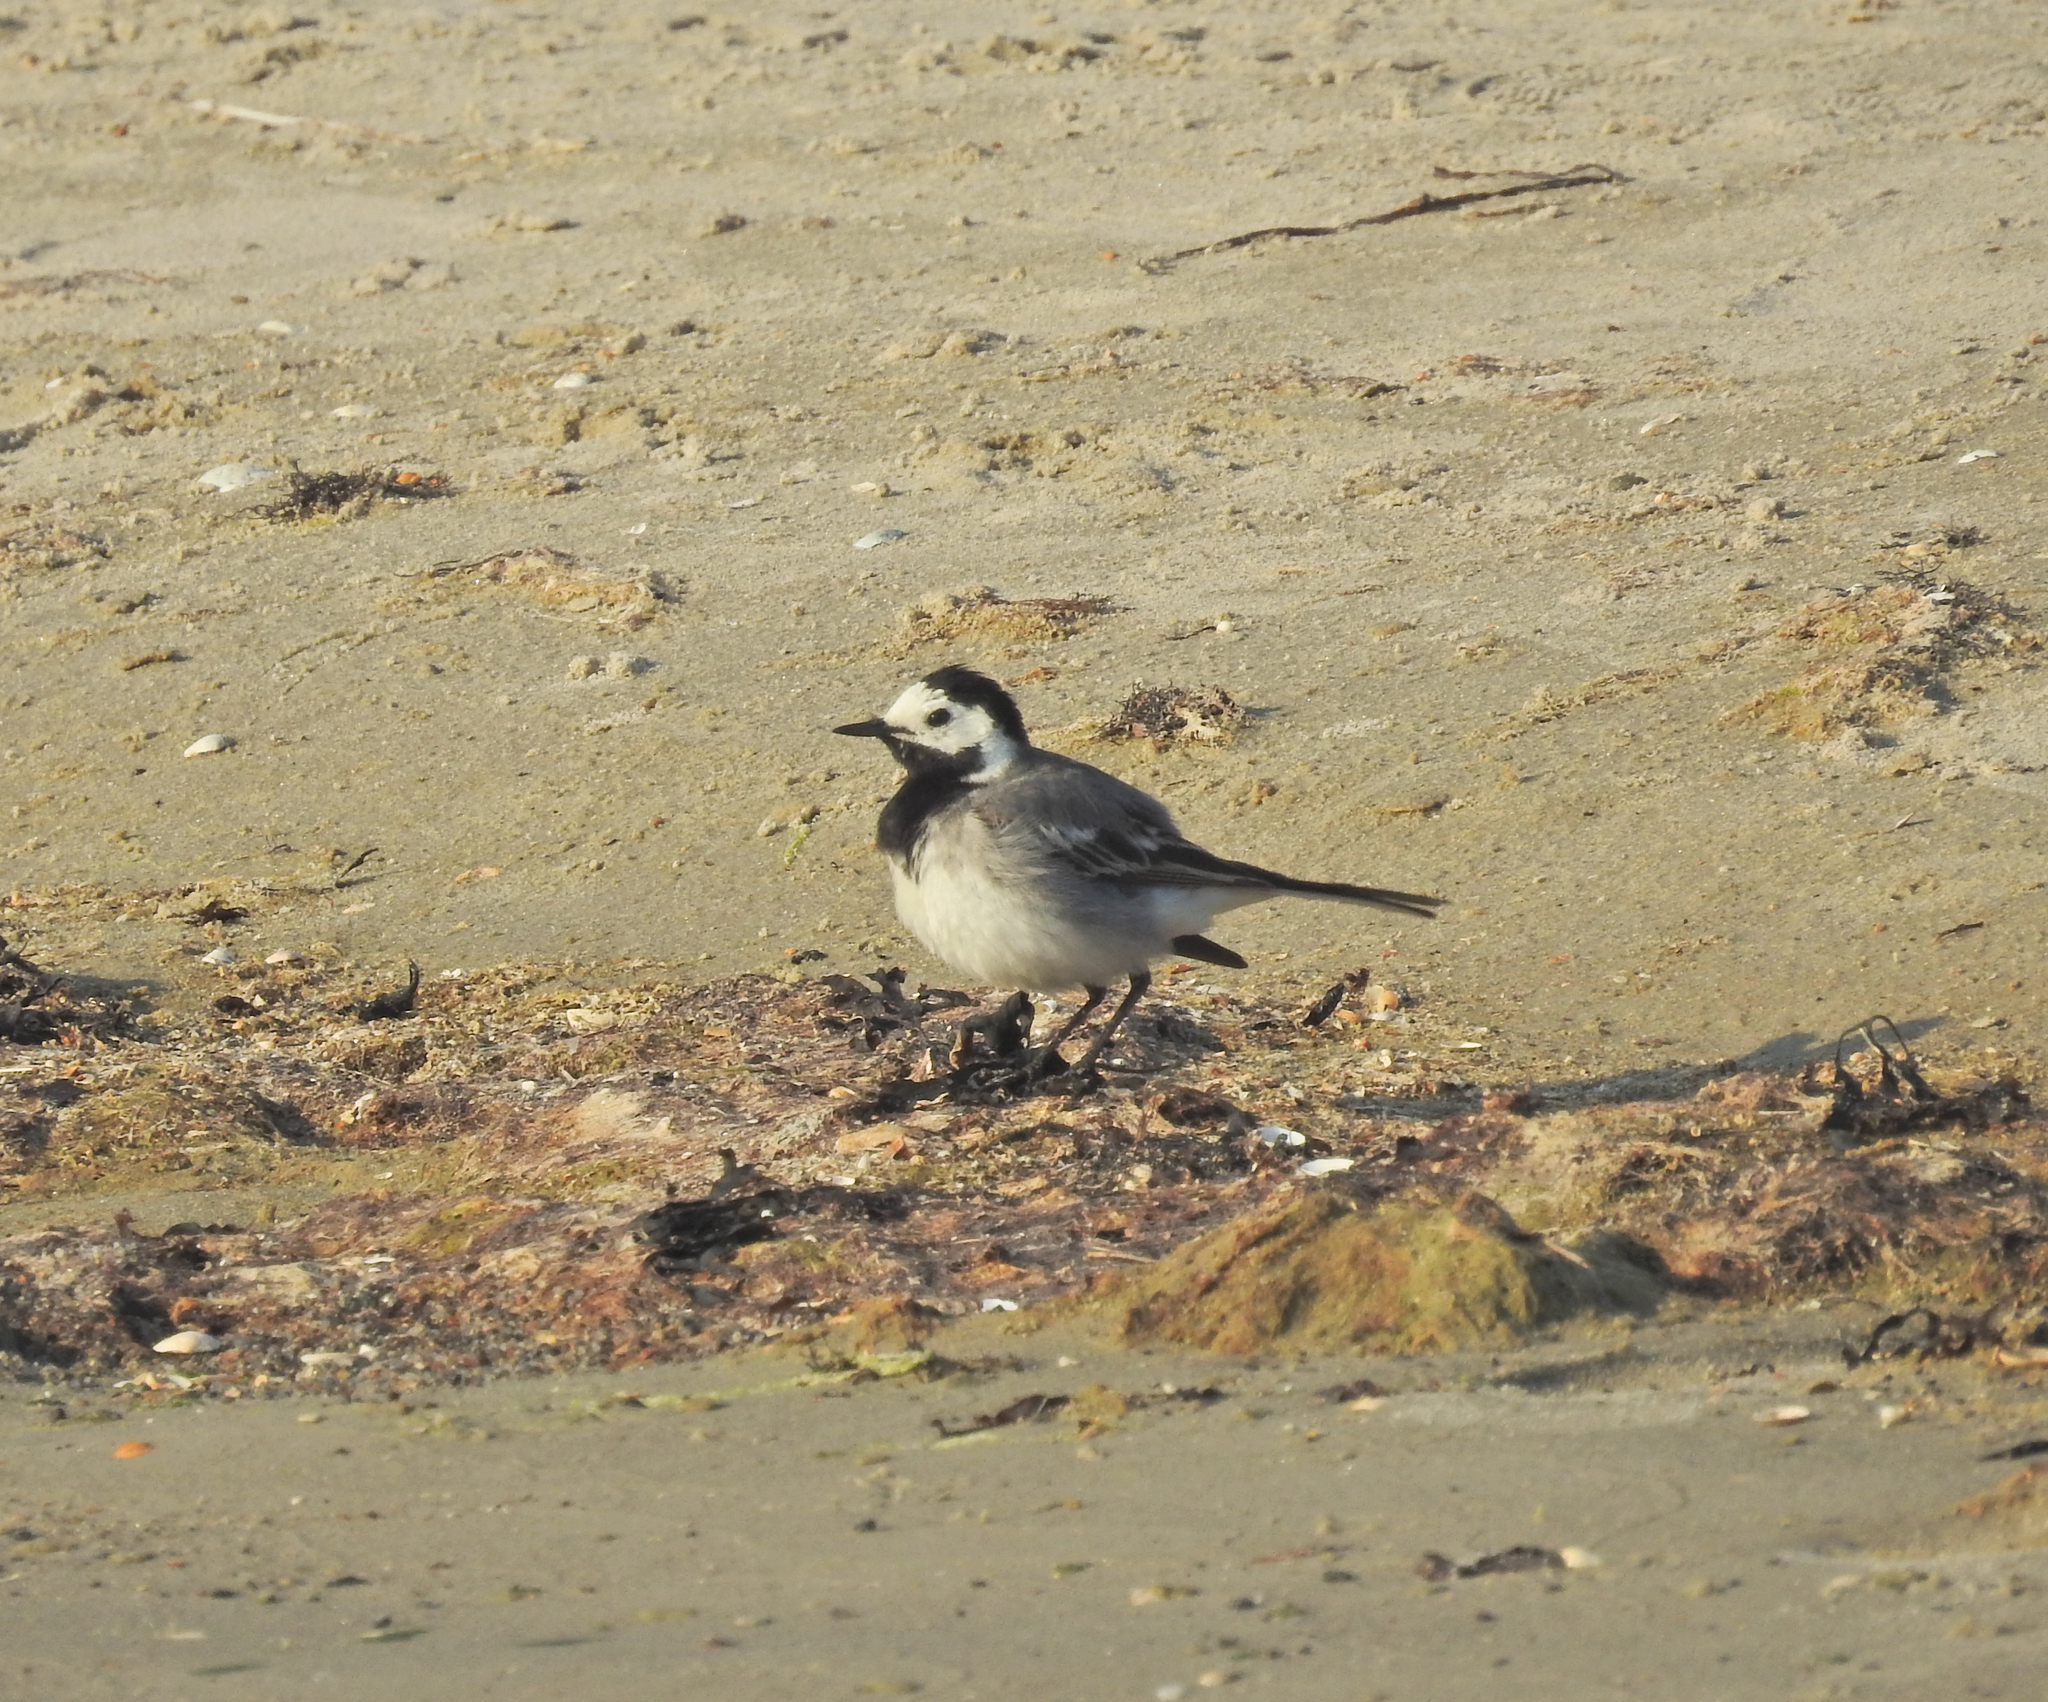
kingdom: Animalia
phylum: Chordata
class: Aves
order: Passeriformes
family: Motacillidae
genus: Motacilla
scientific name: Motacilla alba
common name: White wagtail
